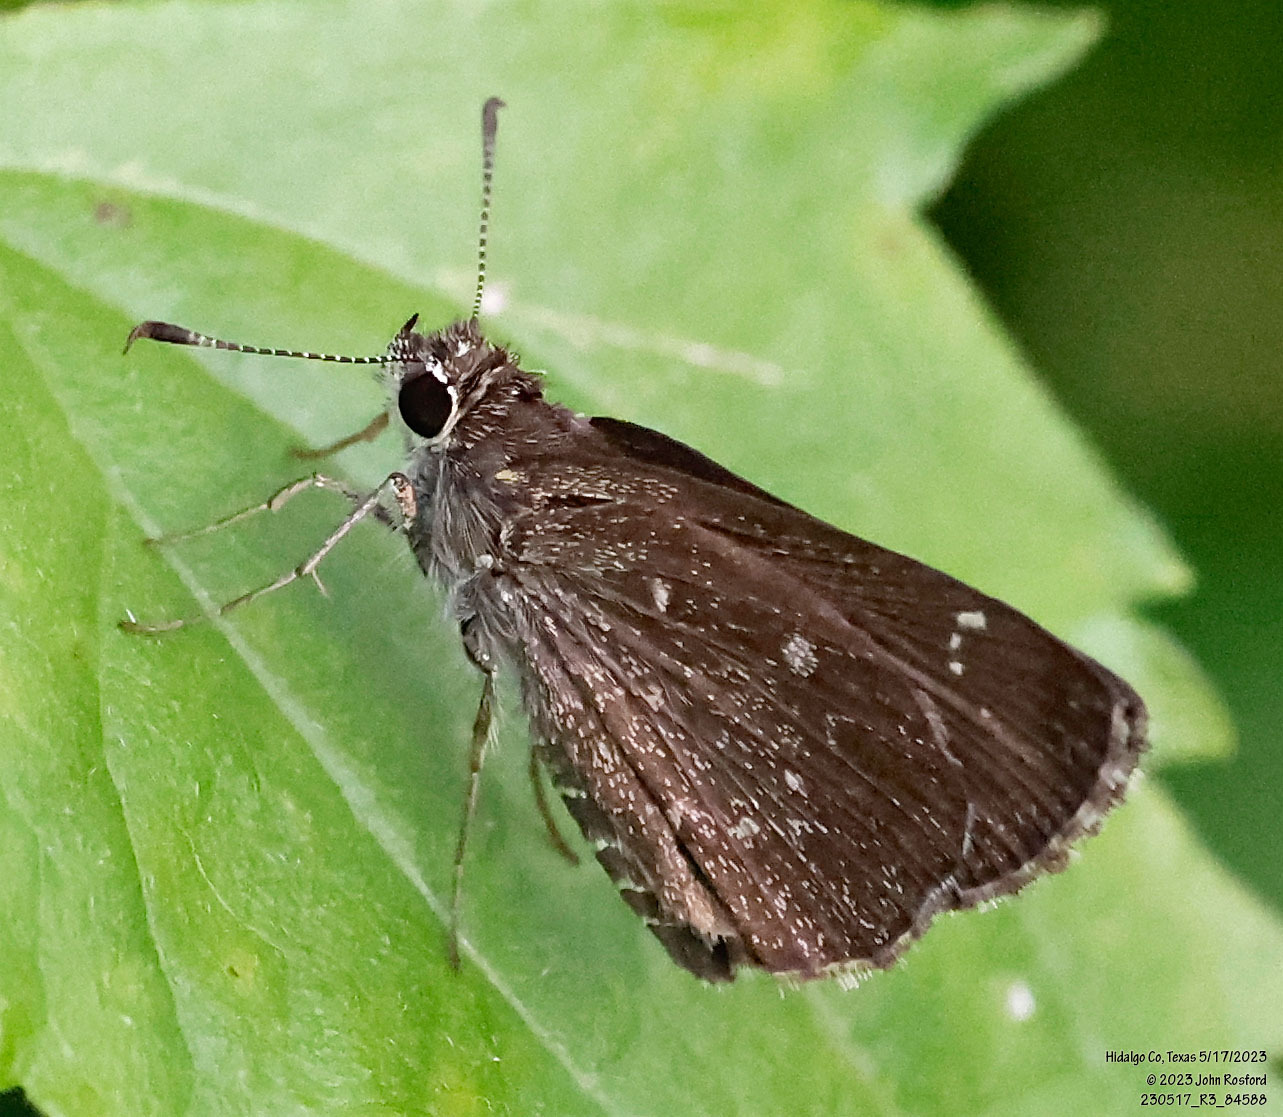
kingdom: Animalia
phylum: Arthropoda
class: Insecta
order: Lepidoptera
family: Hesperiidae
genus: Mastor
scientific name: Mastor celia
